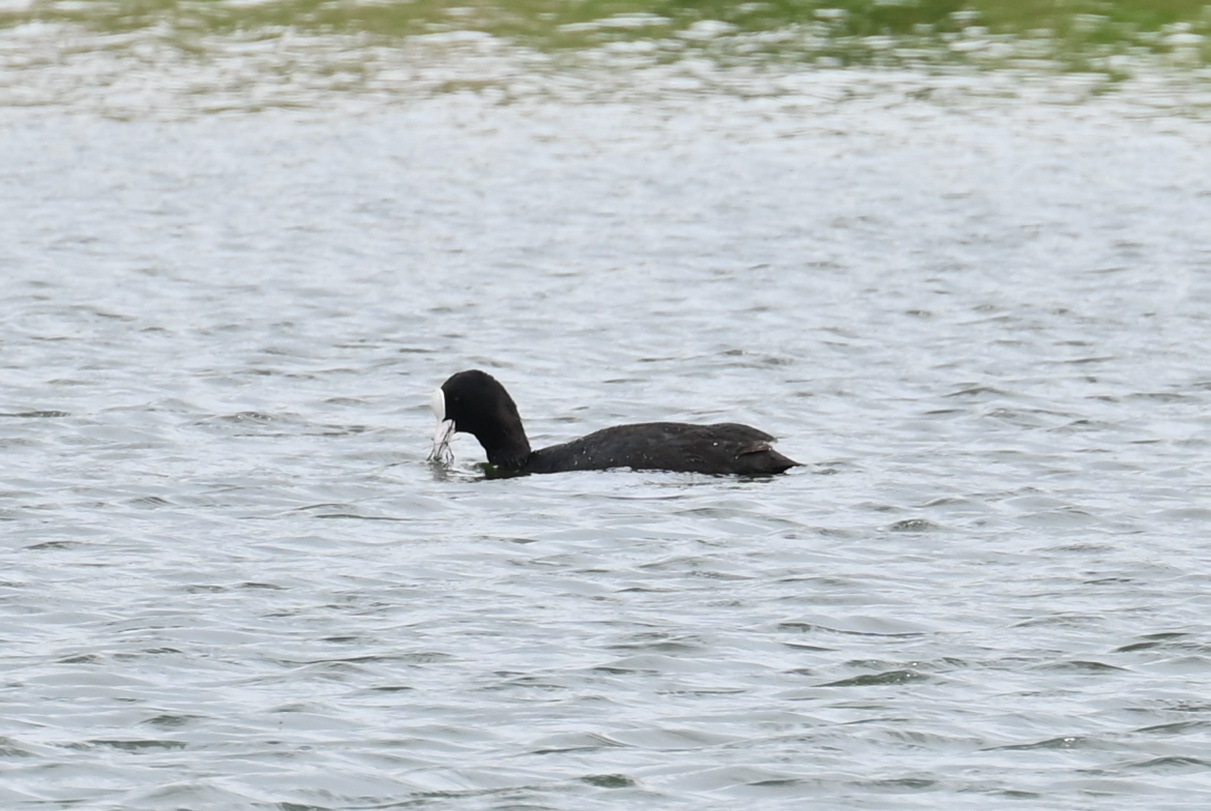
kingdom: Animalia
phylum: Chordata
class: Aves
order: Gruiformes
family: Rallidae
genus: Fulica
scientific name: Fulica atra
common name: Eurasian coot
